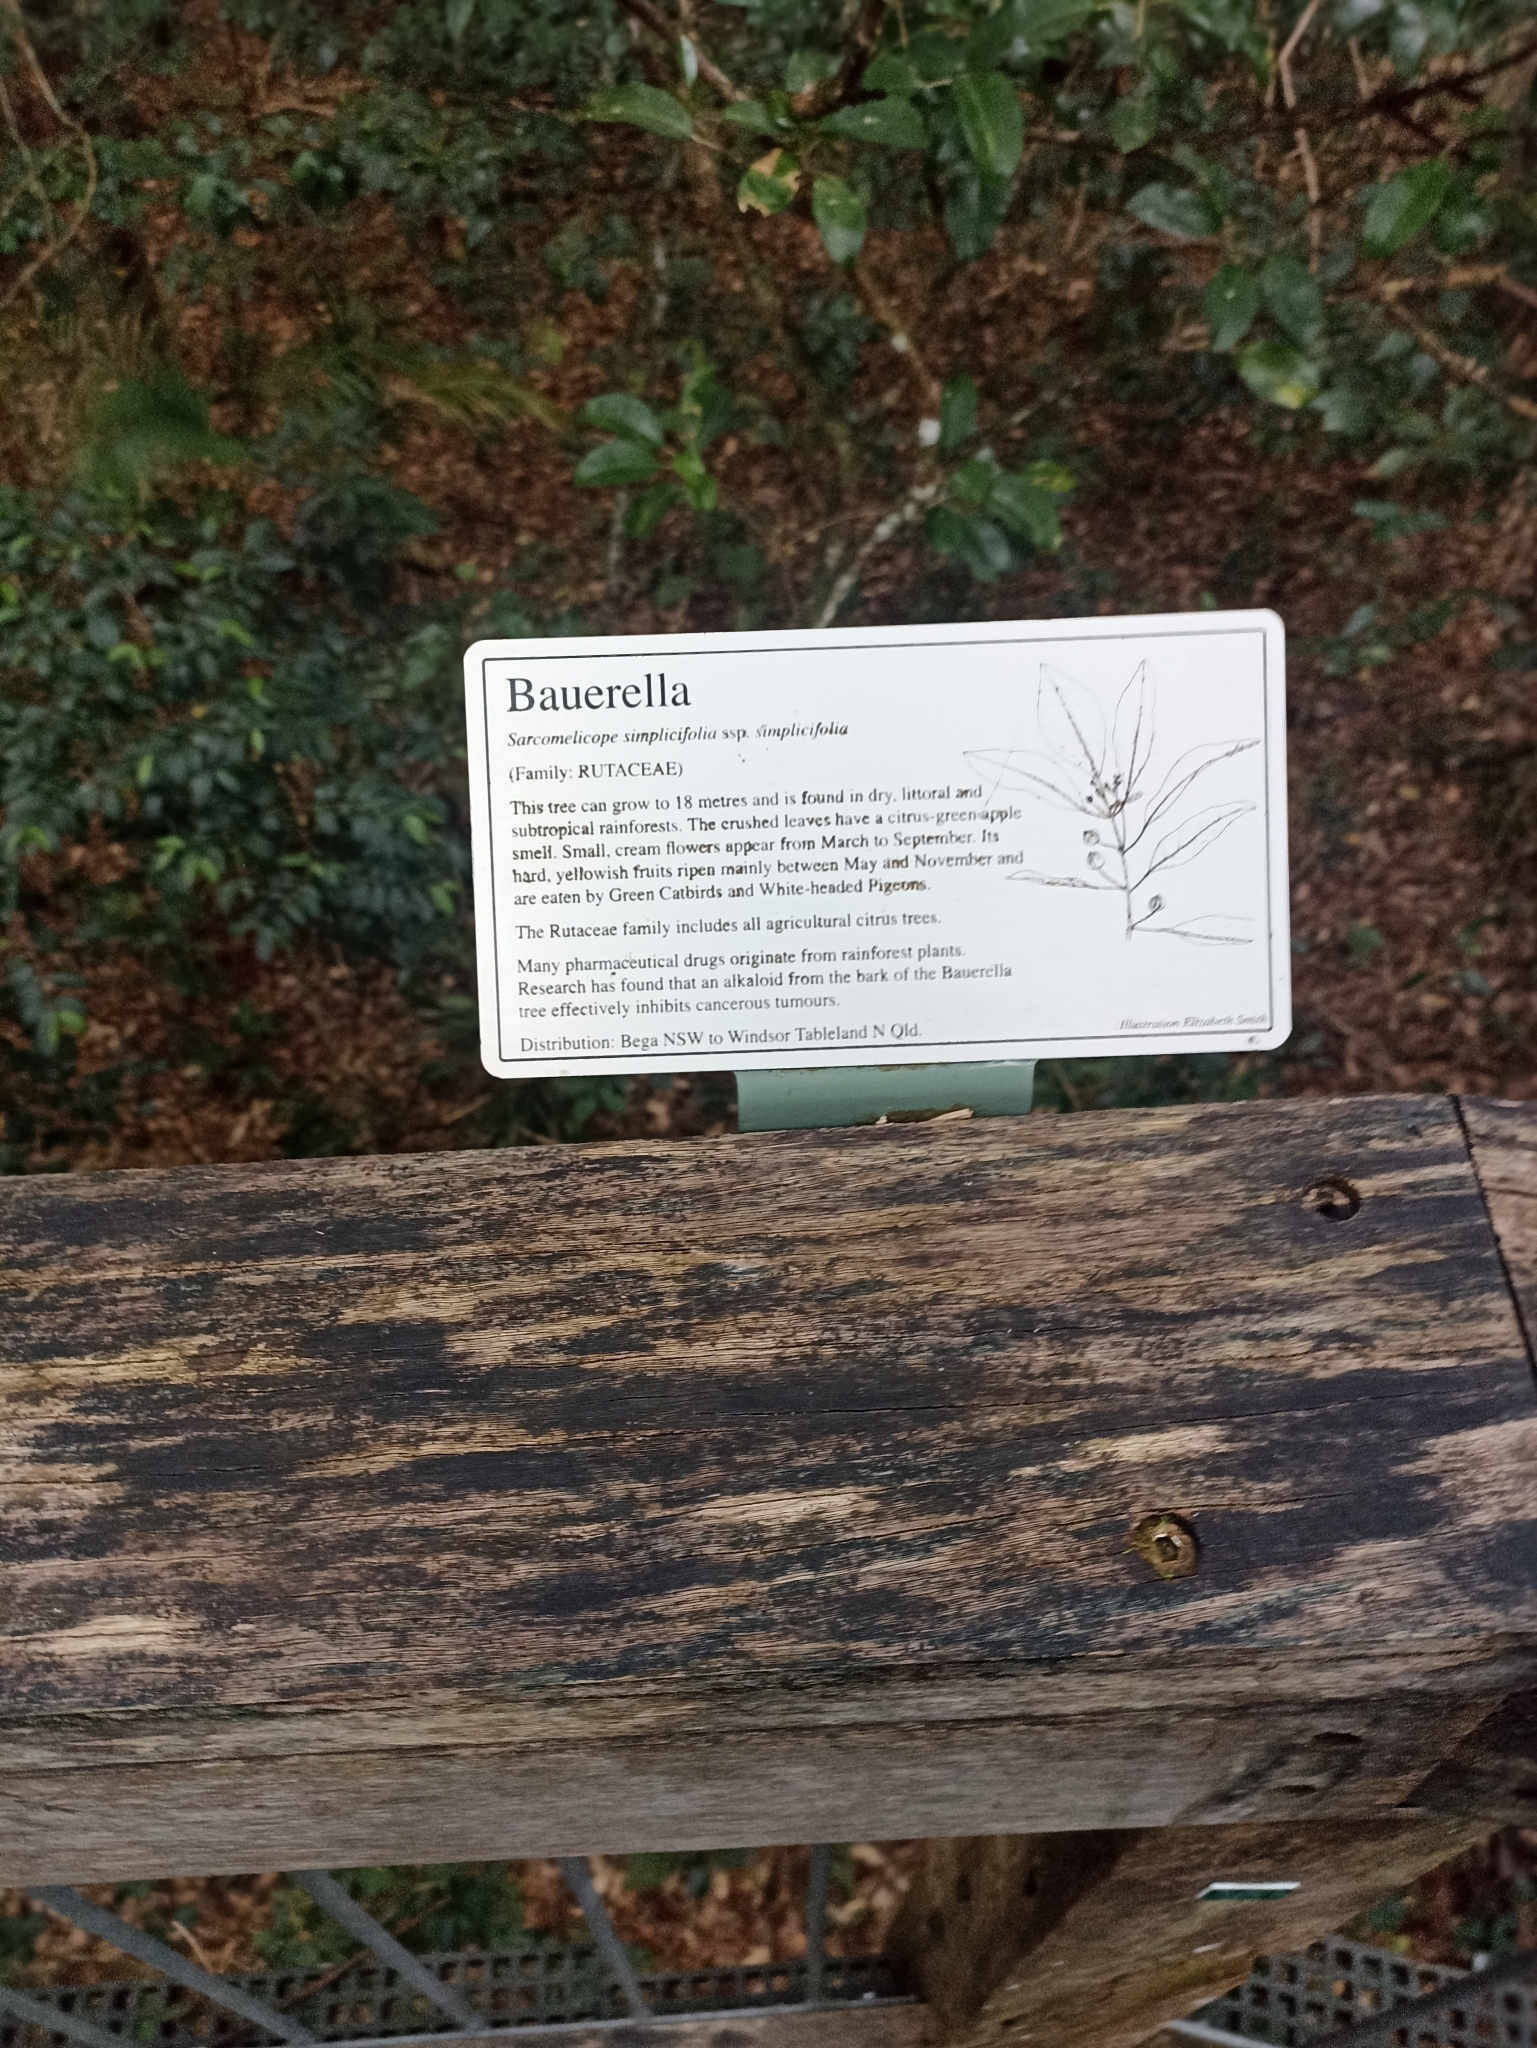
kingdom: Plantae
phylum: Tracheophyta
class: Magnoliopsida
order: Sapindales
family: Rutaceae
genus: Sarcomelicope
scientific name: Sarcomelicope simplicifolia
